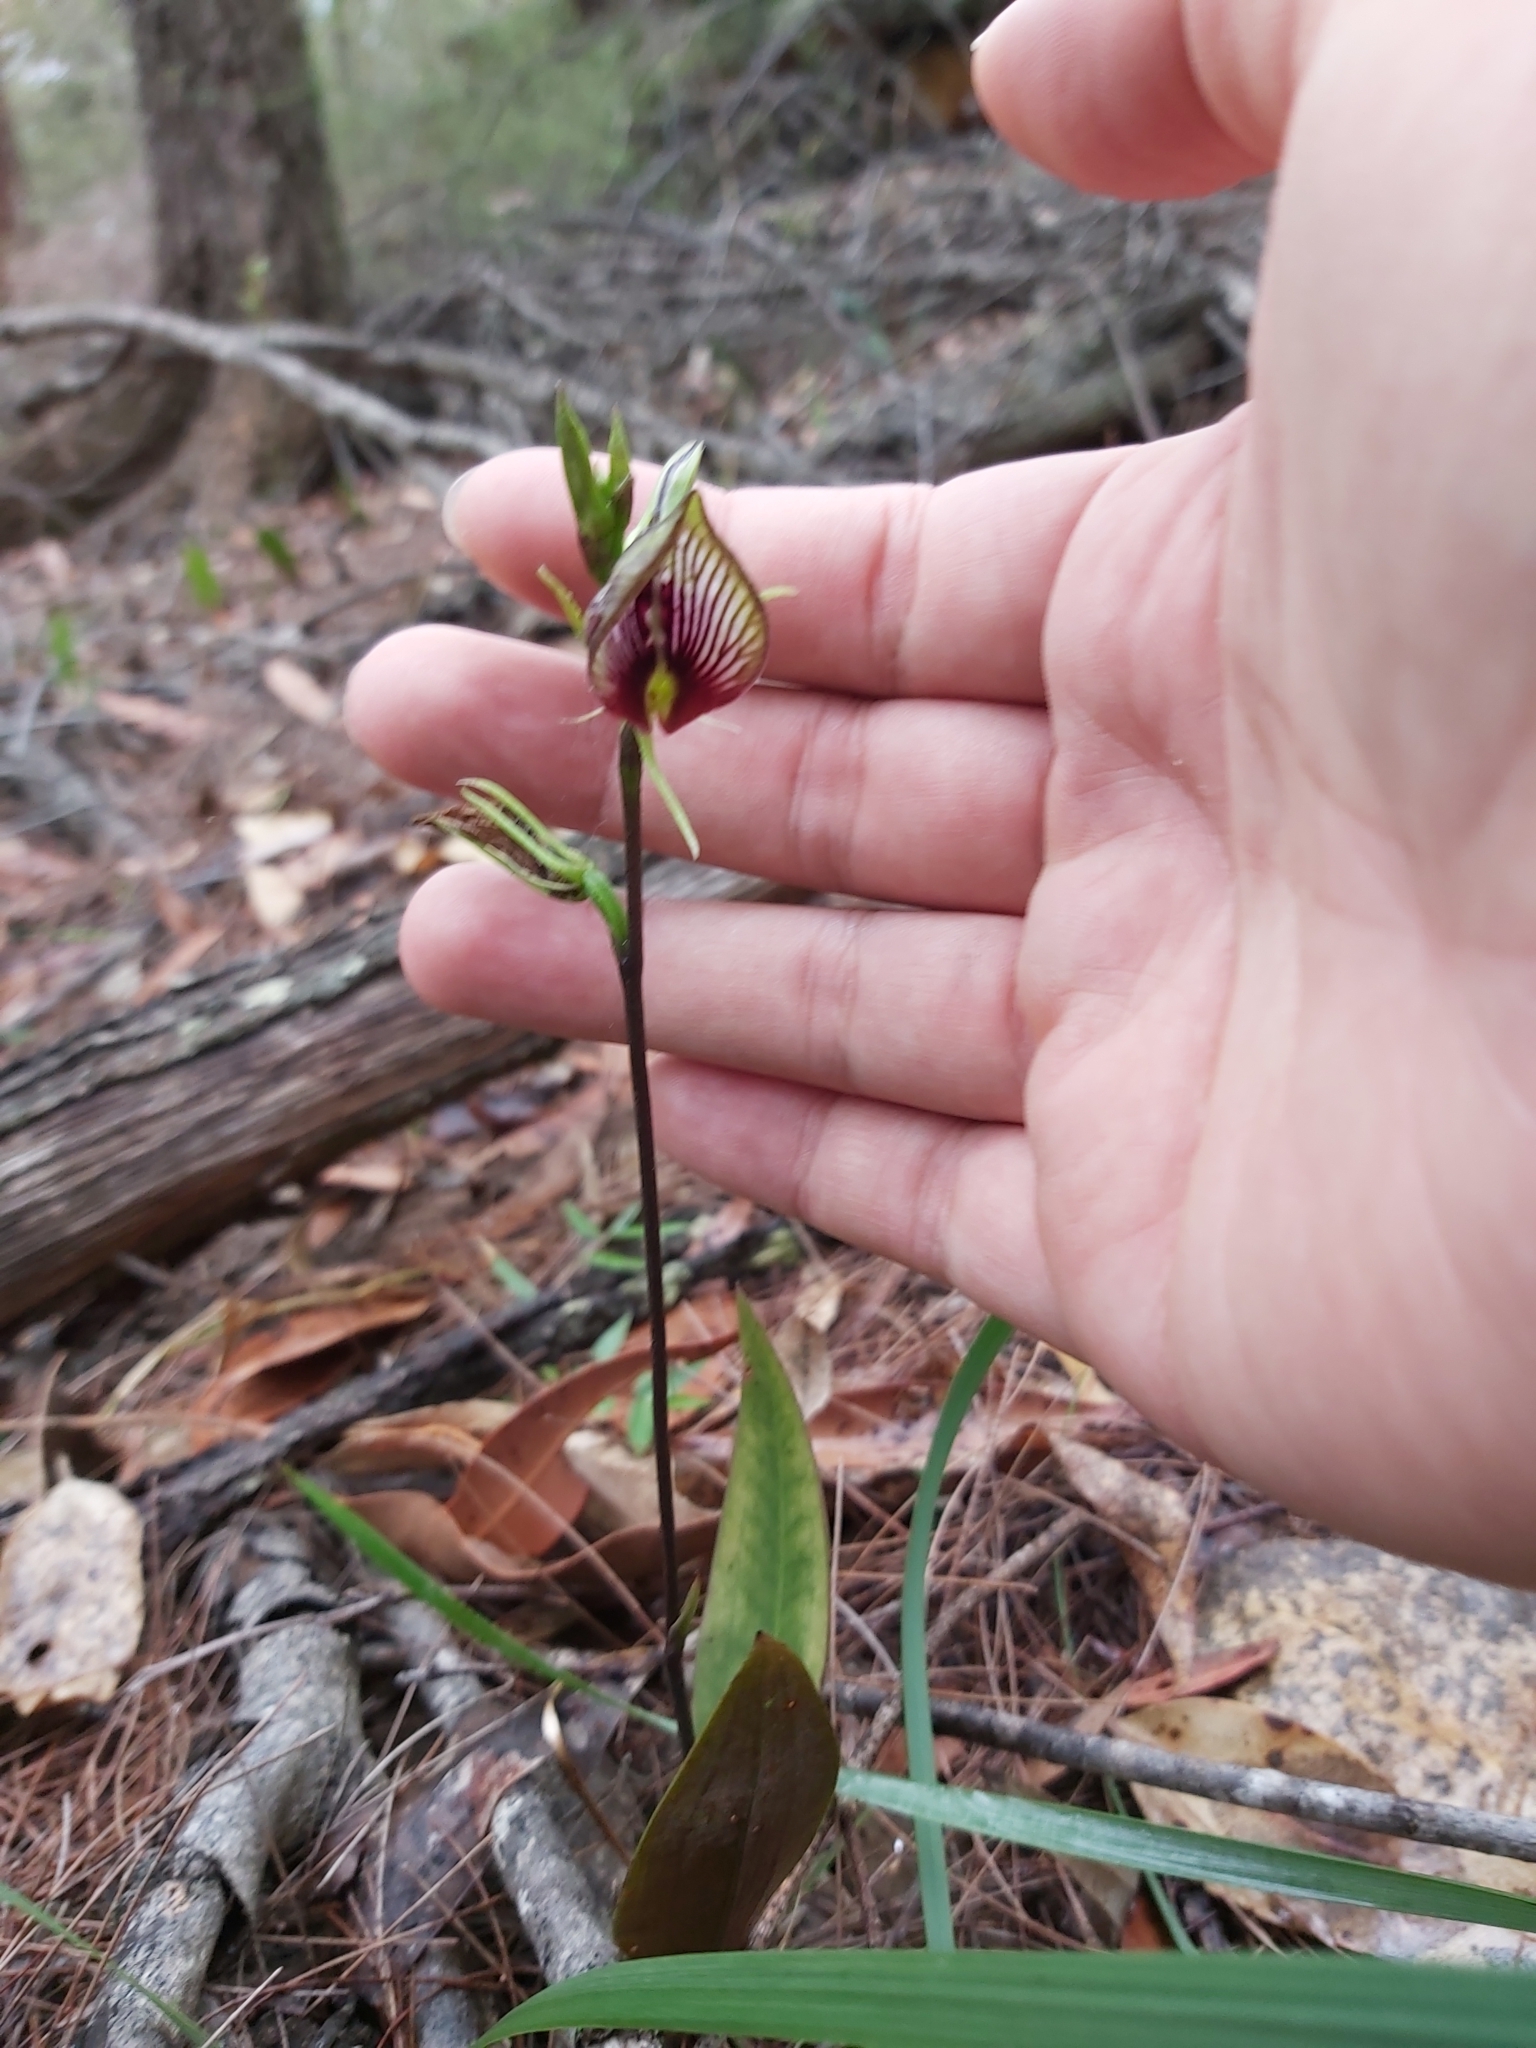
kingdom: Plantae
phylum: Tracheophyta
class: Liliopsida
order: Asparagales
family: Orchidaceae
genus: Cryptostylis
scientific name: Cryptostylis erecta
